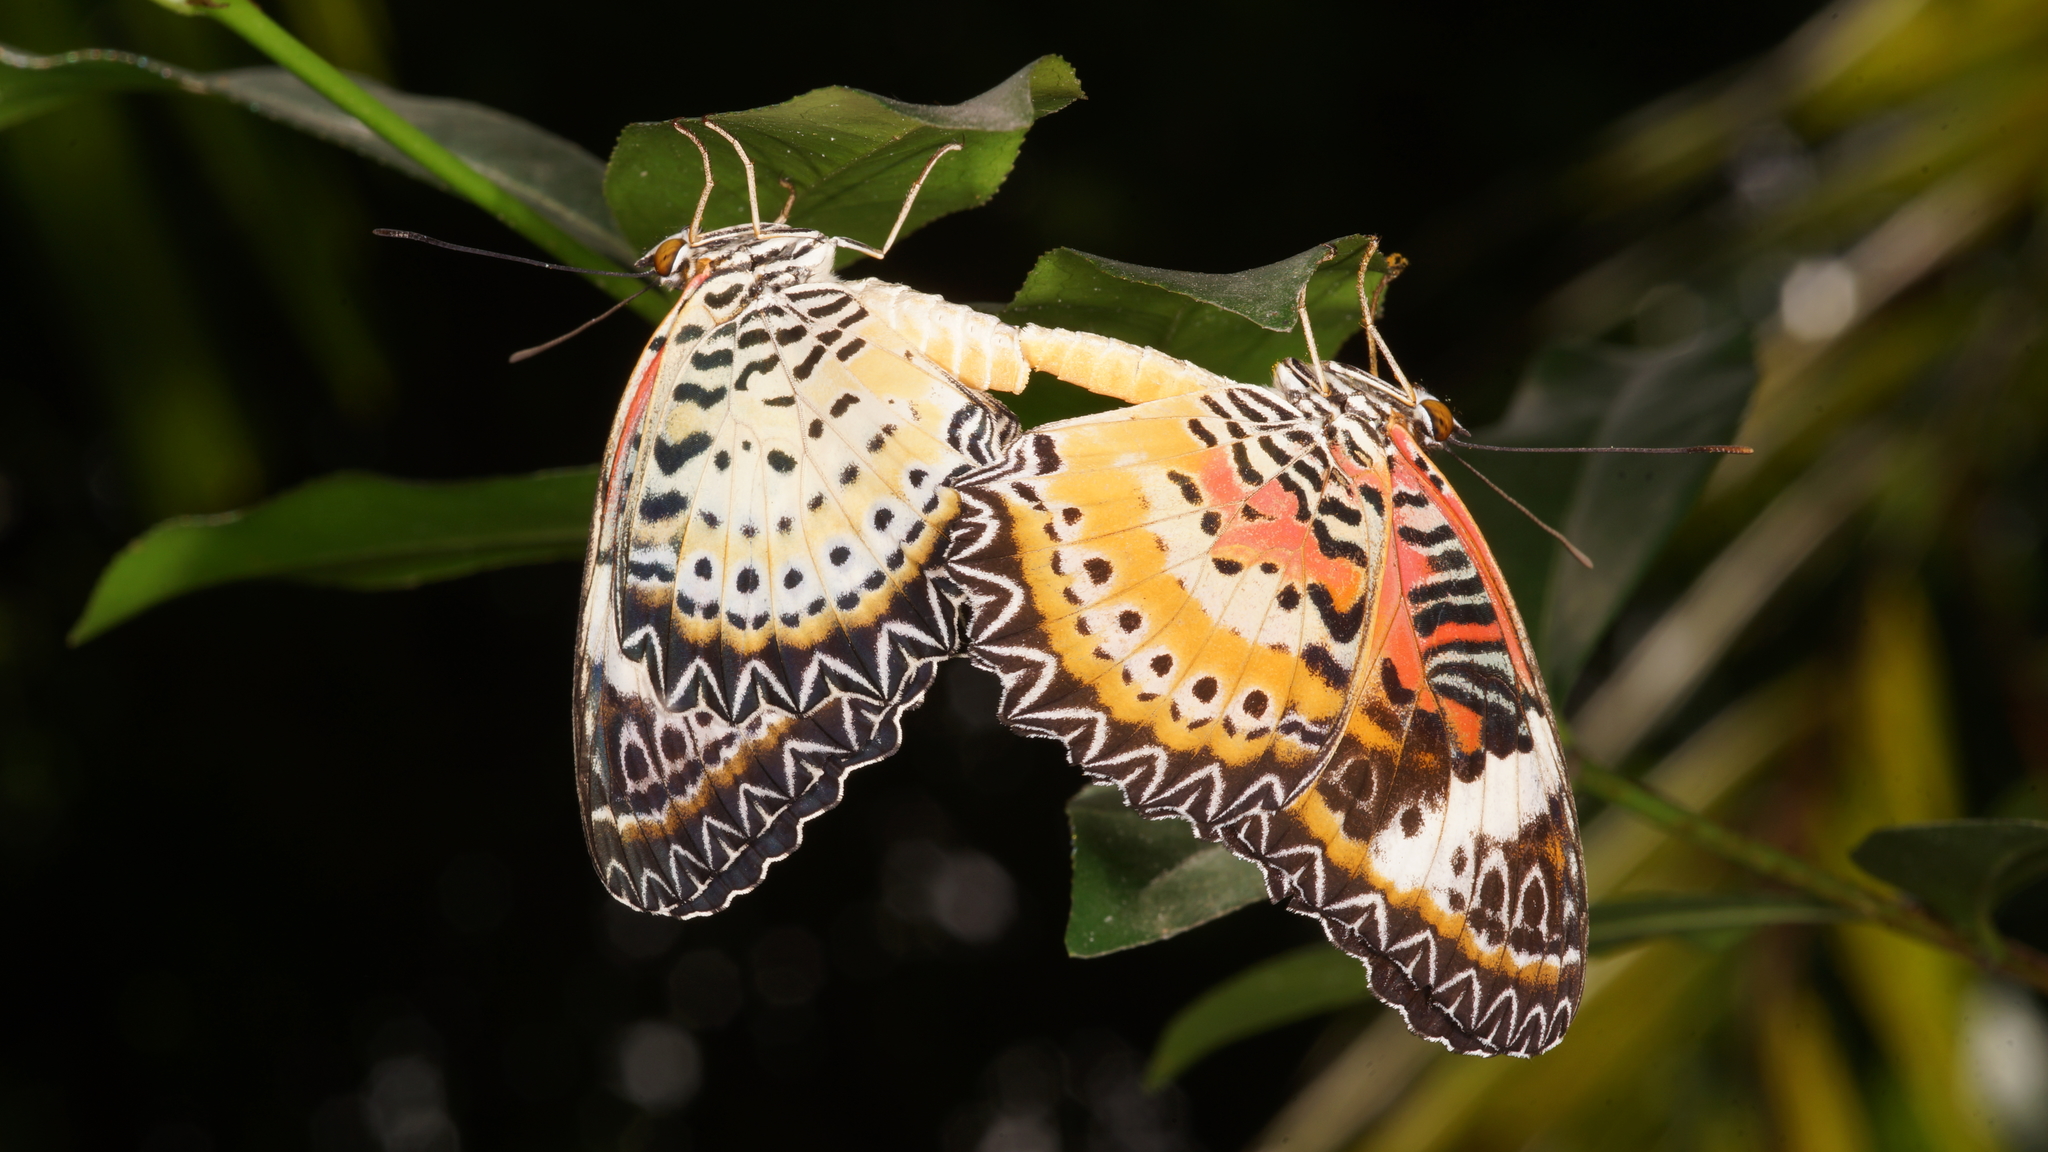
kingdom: Animalia
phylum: Arthropoda
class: Insecta
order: Lepidoptera
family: Nymphalidae
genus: Cethosia
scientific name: Cethosia cyane
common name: Leopard lacewing butterfly
